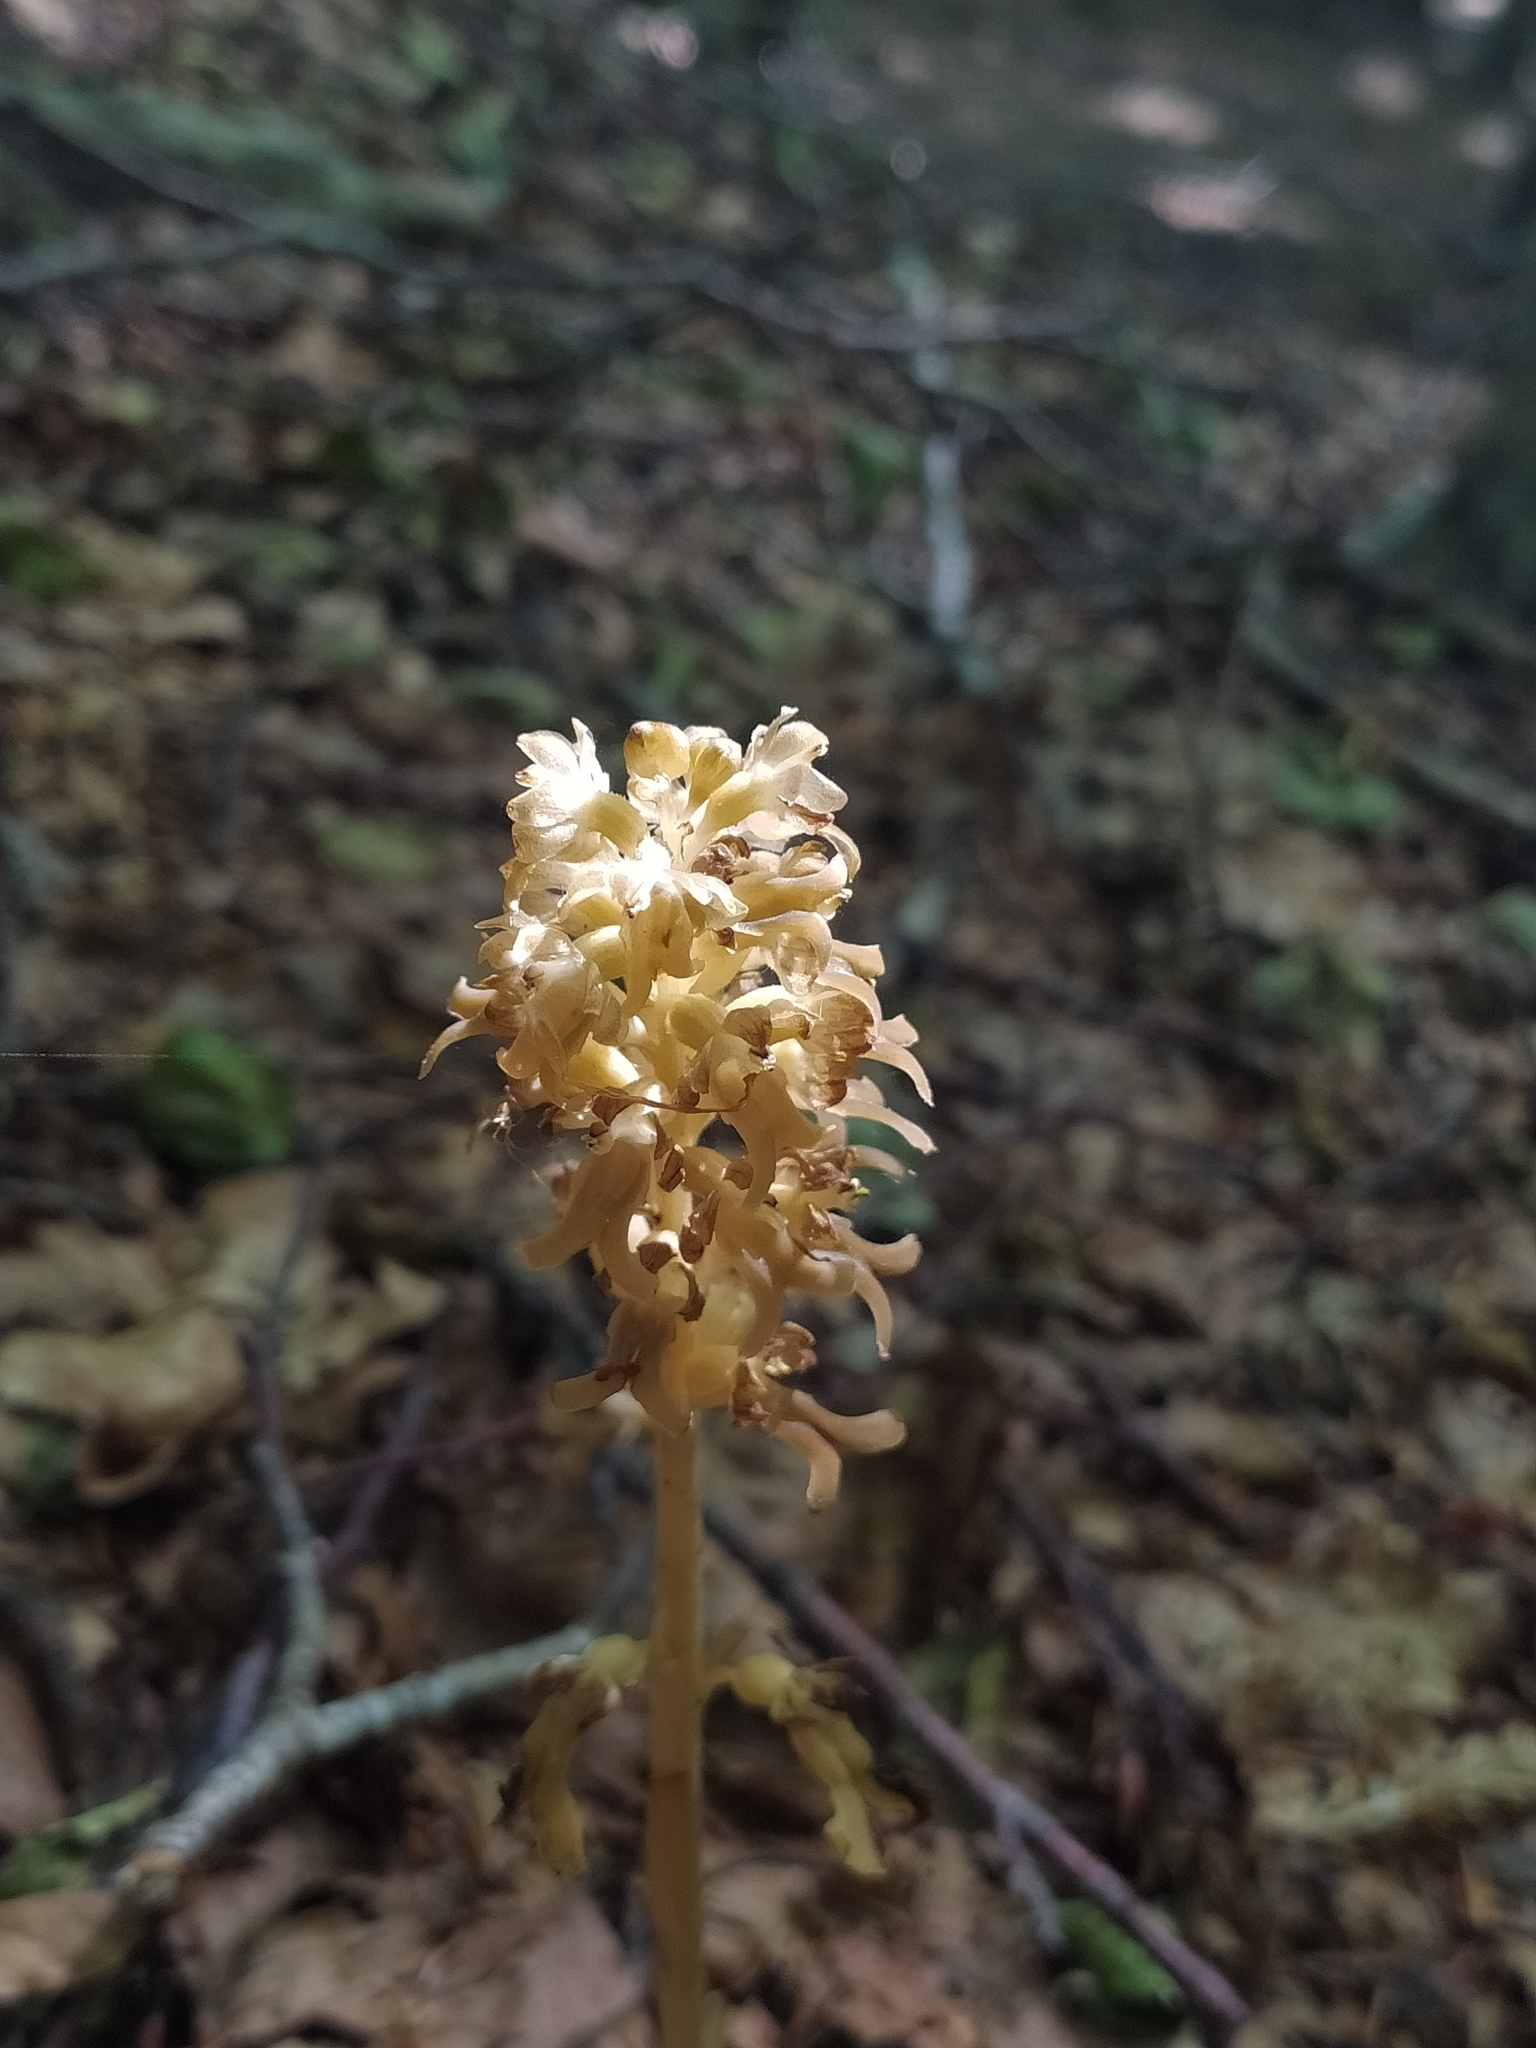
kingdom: Plantae
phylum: Tracheophyta
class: Liliopsida
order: Asparagales
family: Orchidaceae
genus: Neottia
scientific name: Neottia nidus-avis
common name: Bird's-nest orchid
